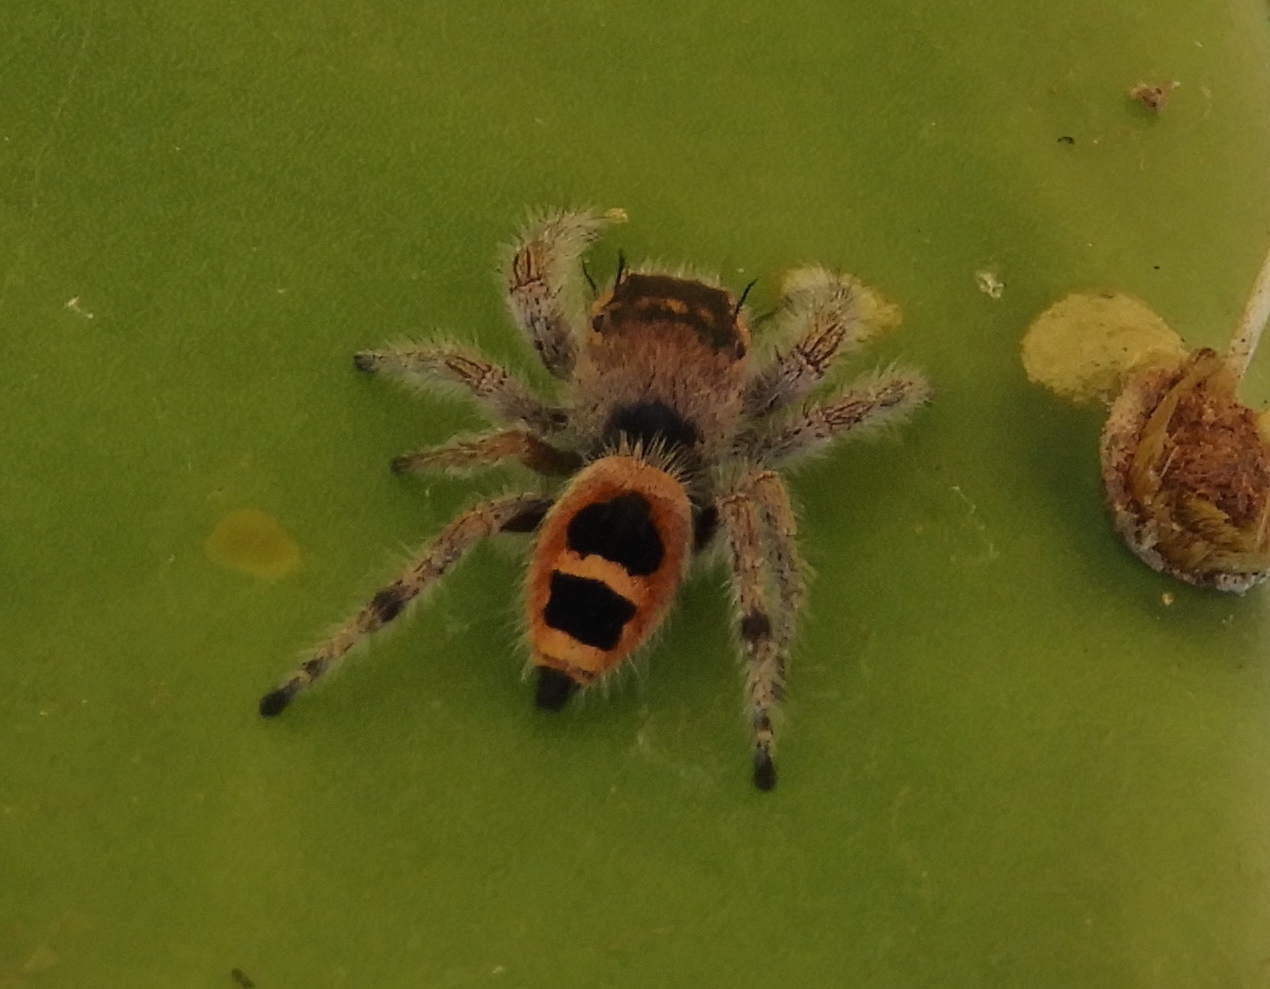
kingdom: Animalia
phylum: Arthropoda
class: Arachnida
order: Araneae
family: Salticidae
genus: Phidippus
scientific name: Phidippus pacosauritus
